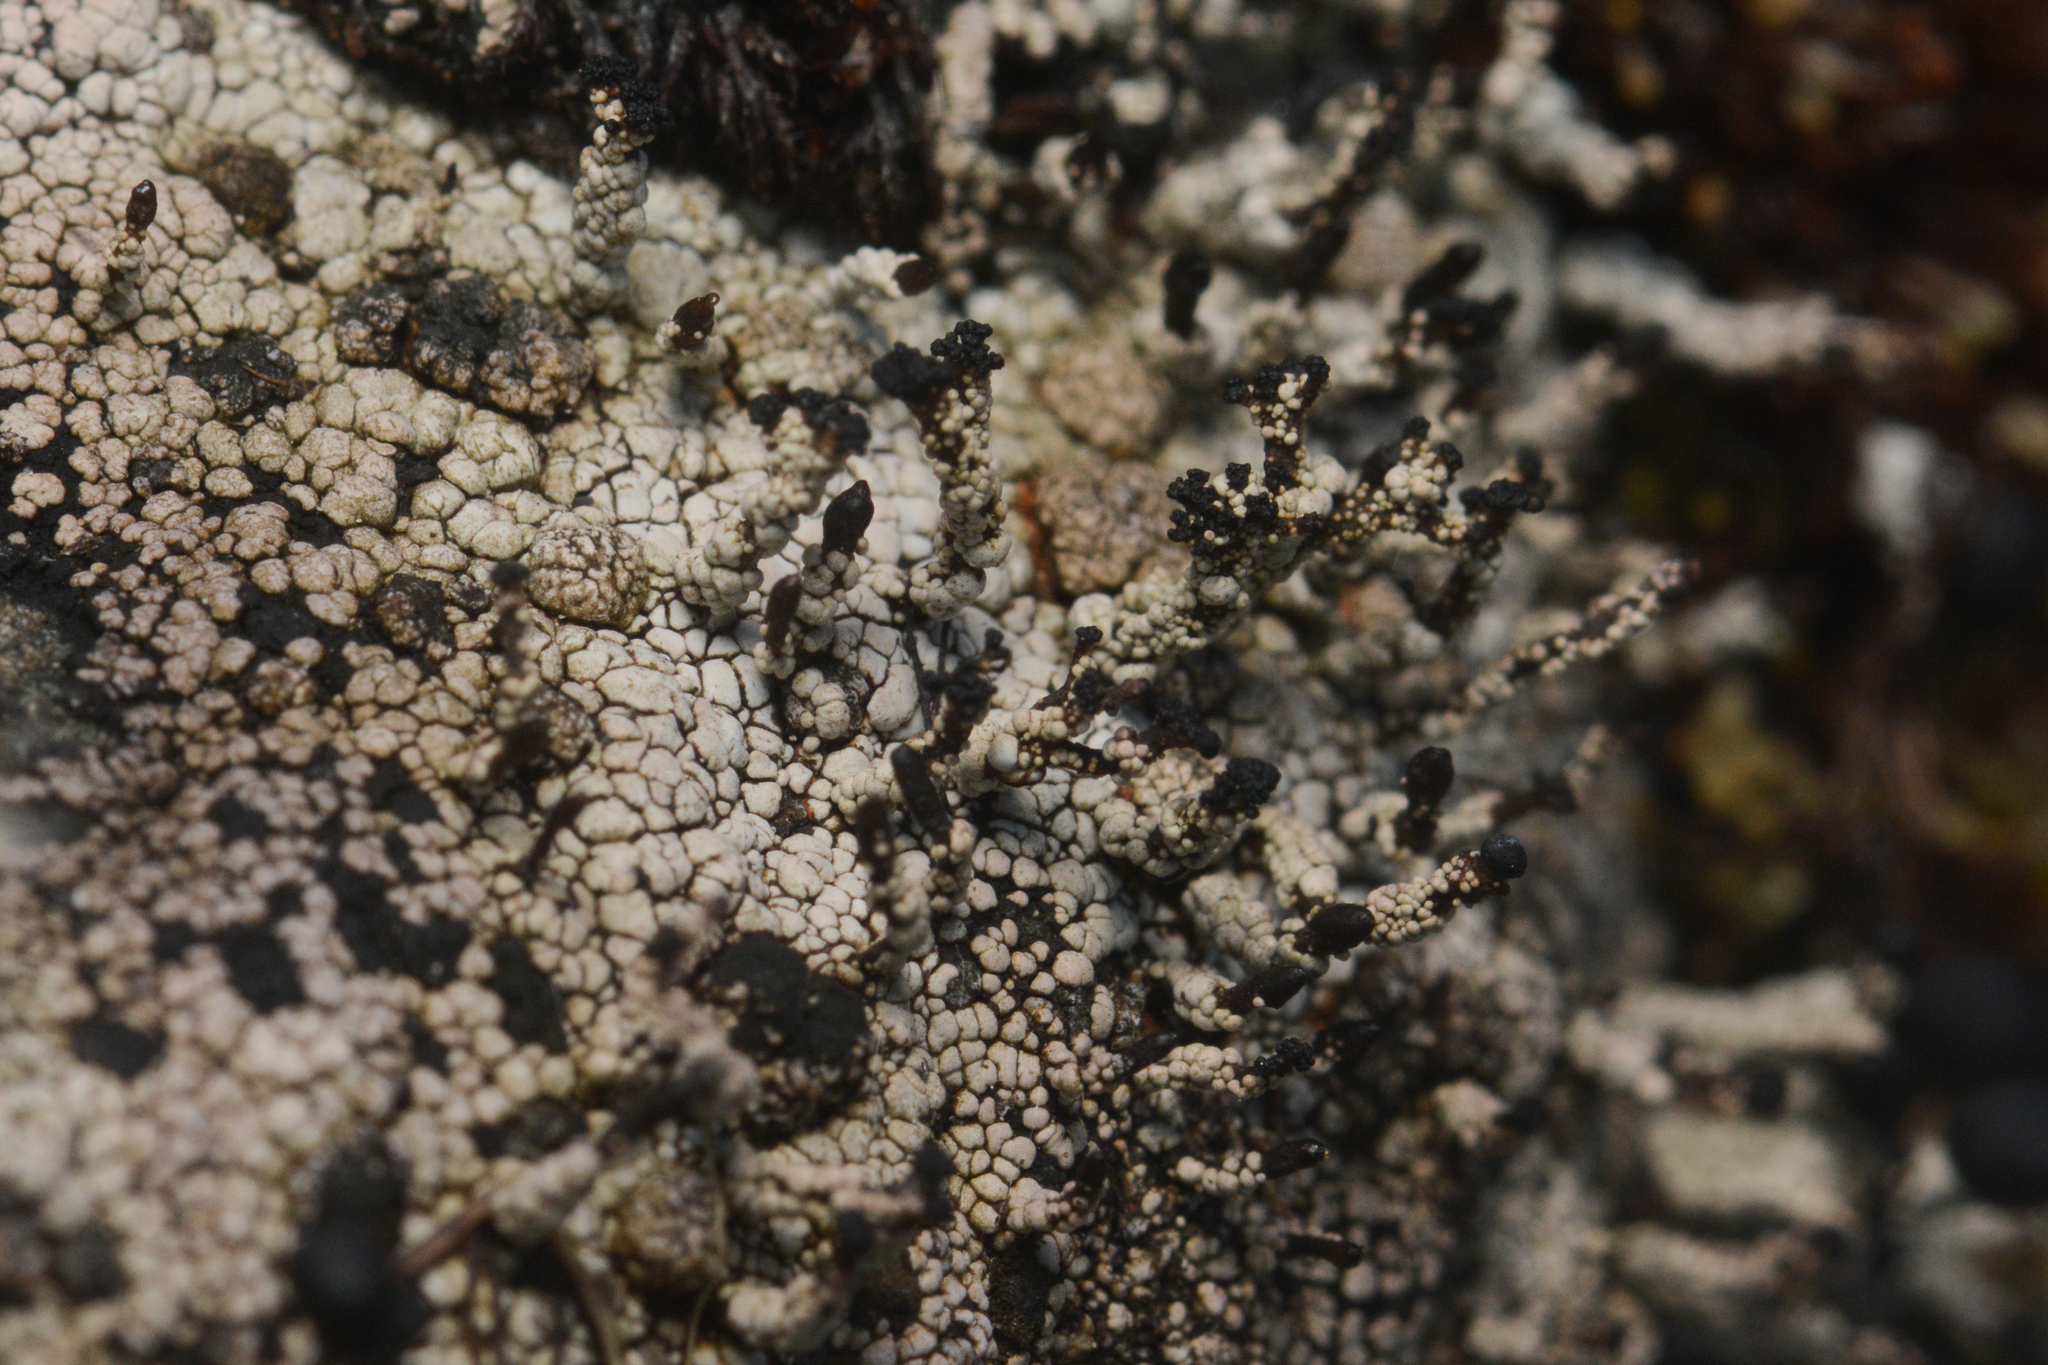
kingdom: Fungi
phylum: Ascomycota
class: Lecanoromycetes
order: Lecanorales
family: Cladoniaceae
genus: Pilophorus
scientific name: Pilophorus nigricaulis
